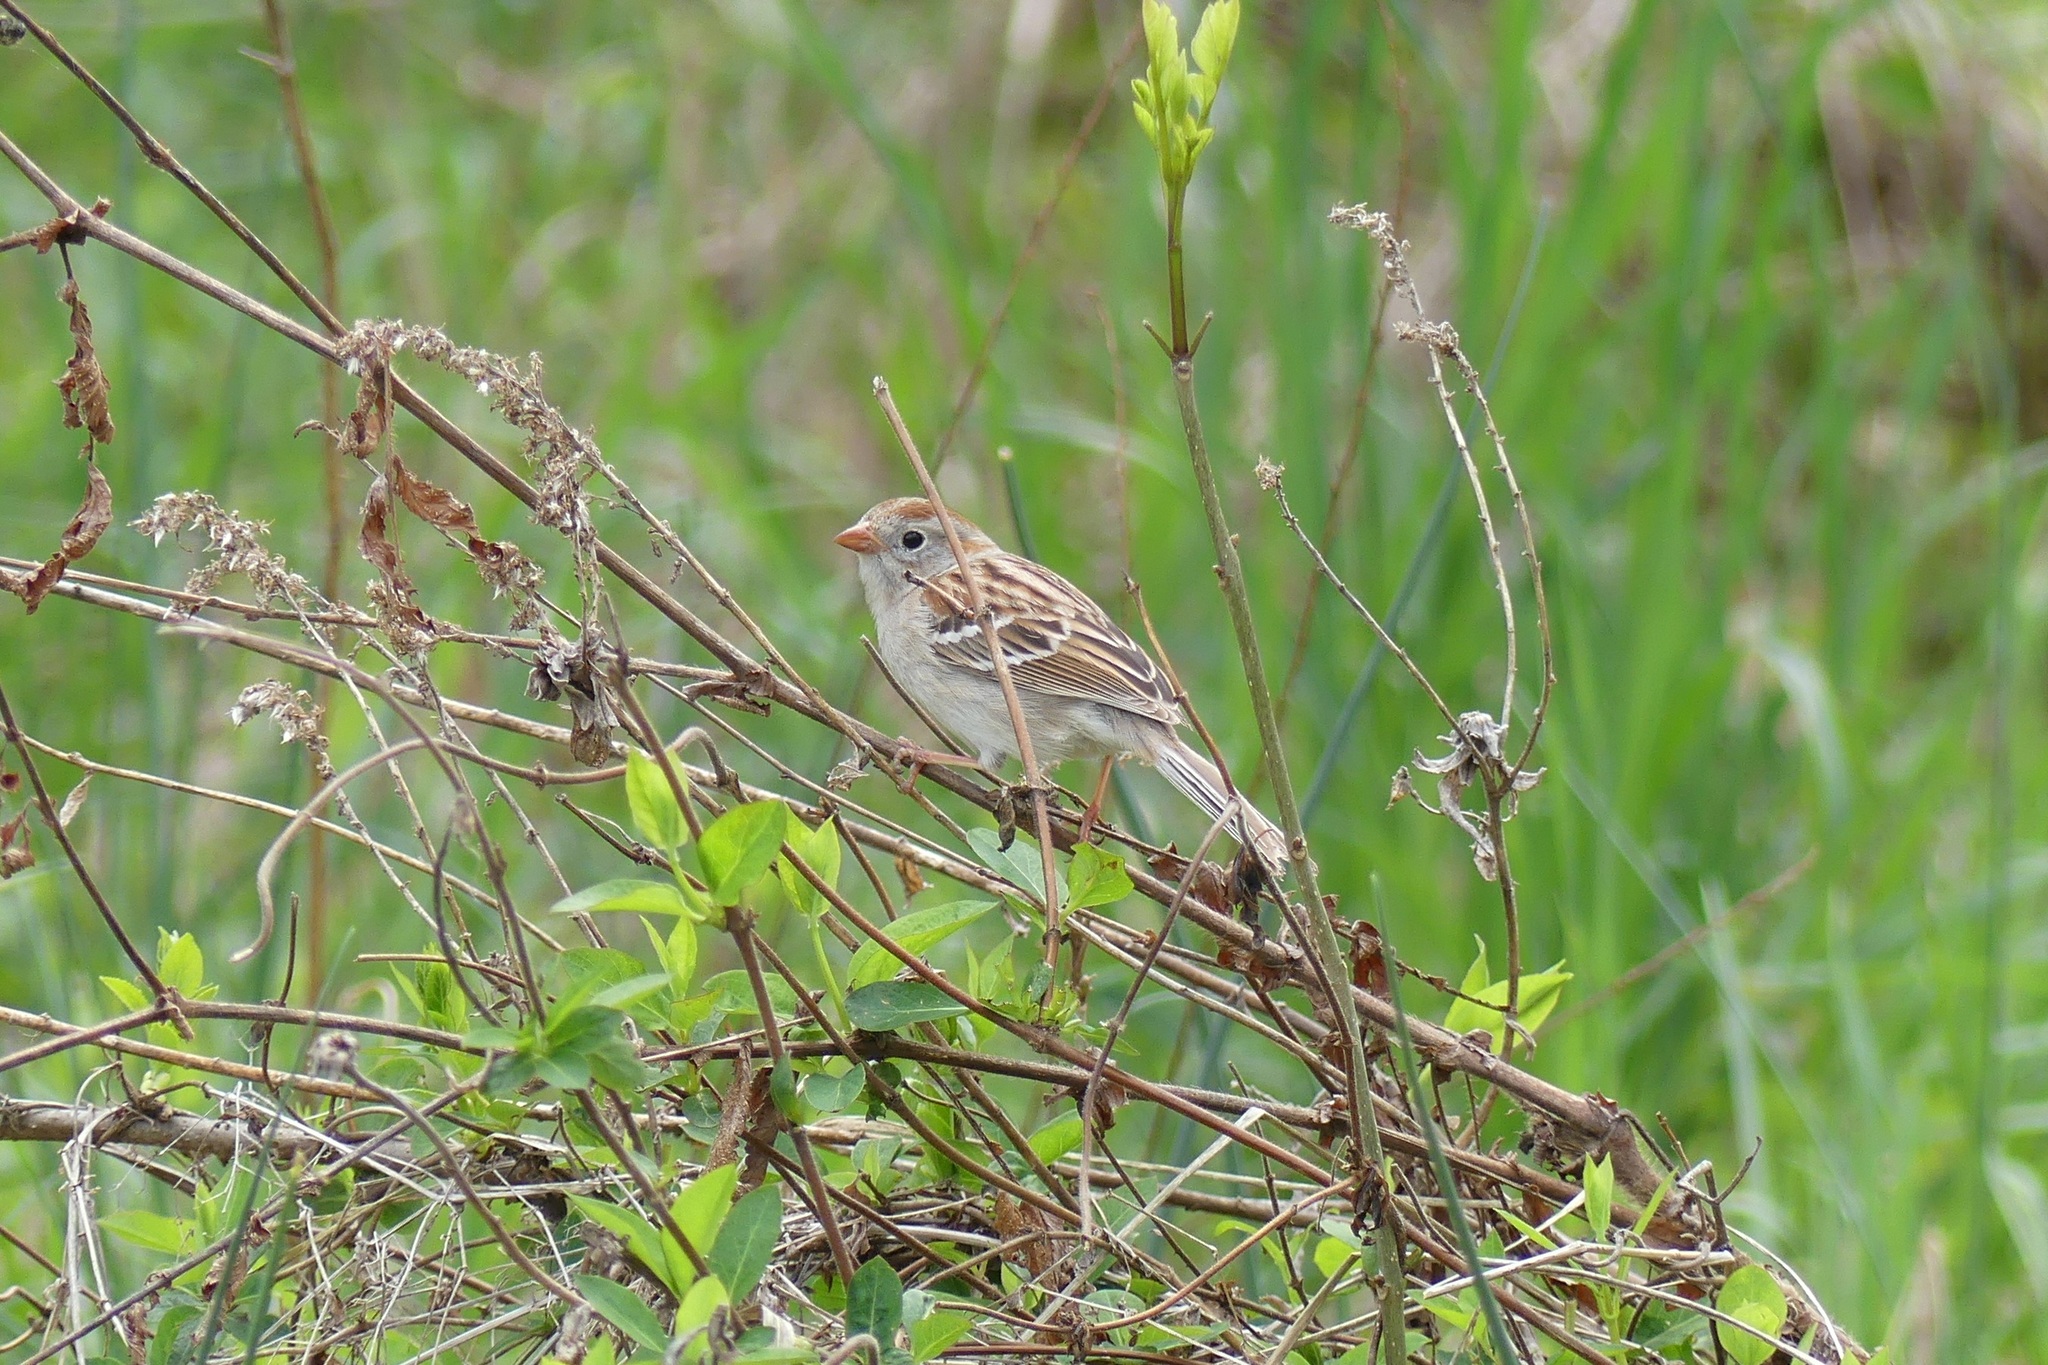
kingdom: Animalia
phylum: Chordata
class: Aves
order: Passeriformes
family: Passerellidae
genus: Spizella
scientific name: Spizella pusilla
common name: Field sparrow
